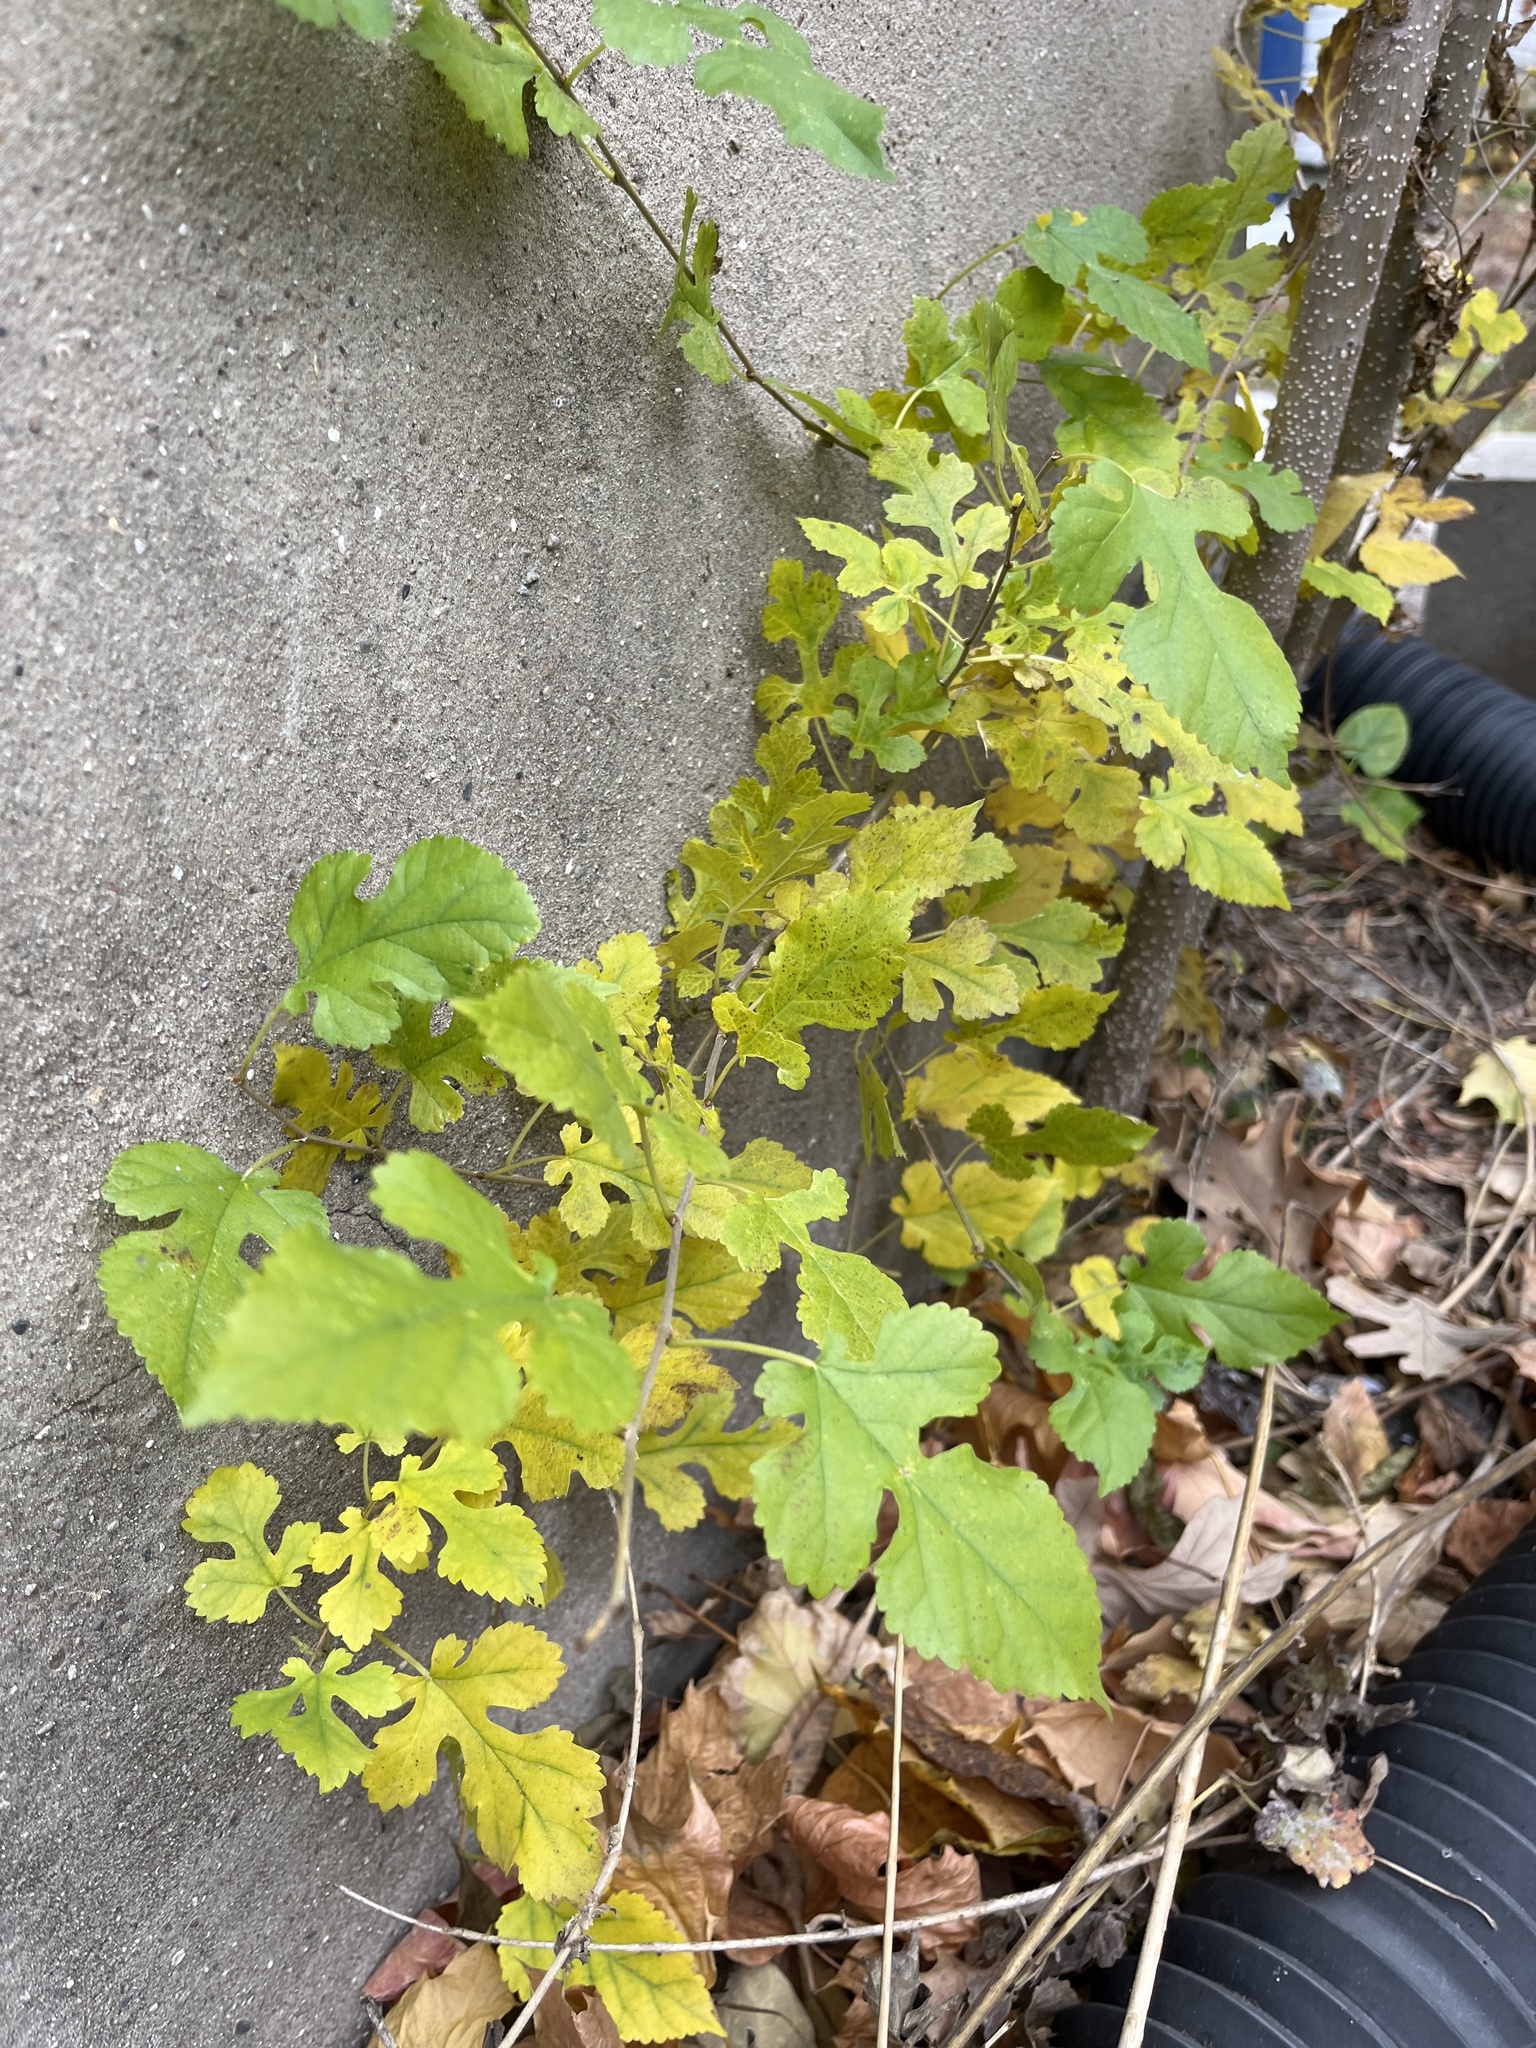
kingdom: Plantae
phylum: Tracheophyta
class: Magnoliopsida
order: Rosales
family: Moraceae
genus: Morus
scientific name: Morus alba
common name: White mulberry
